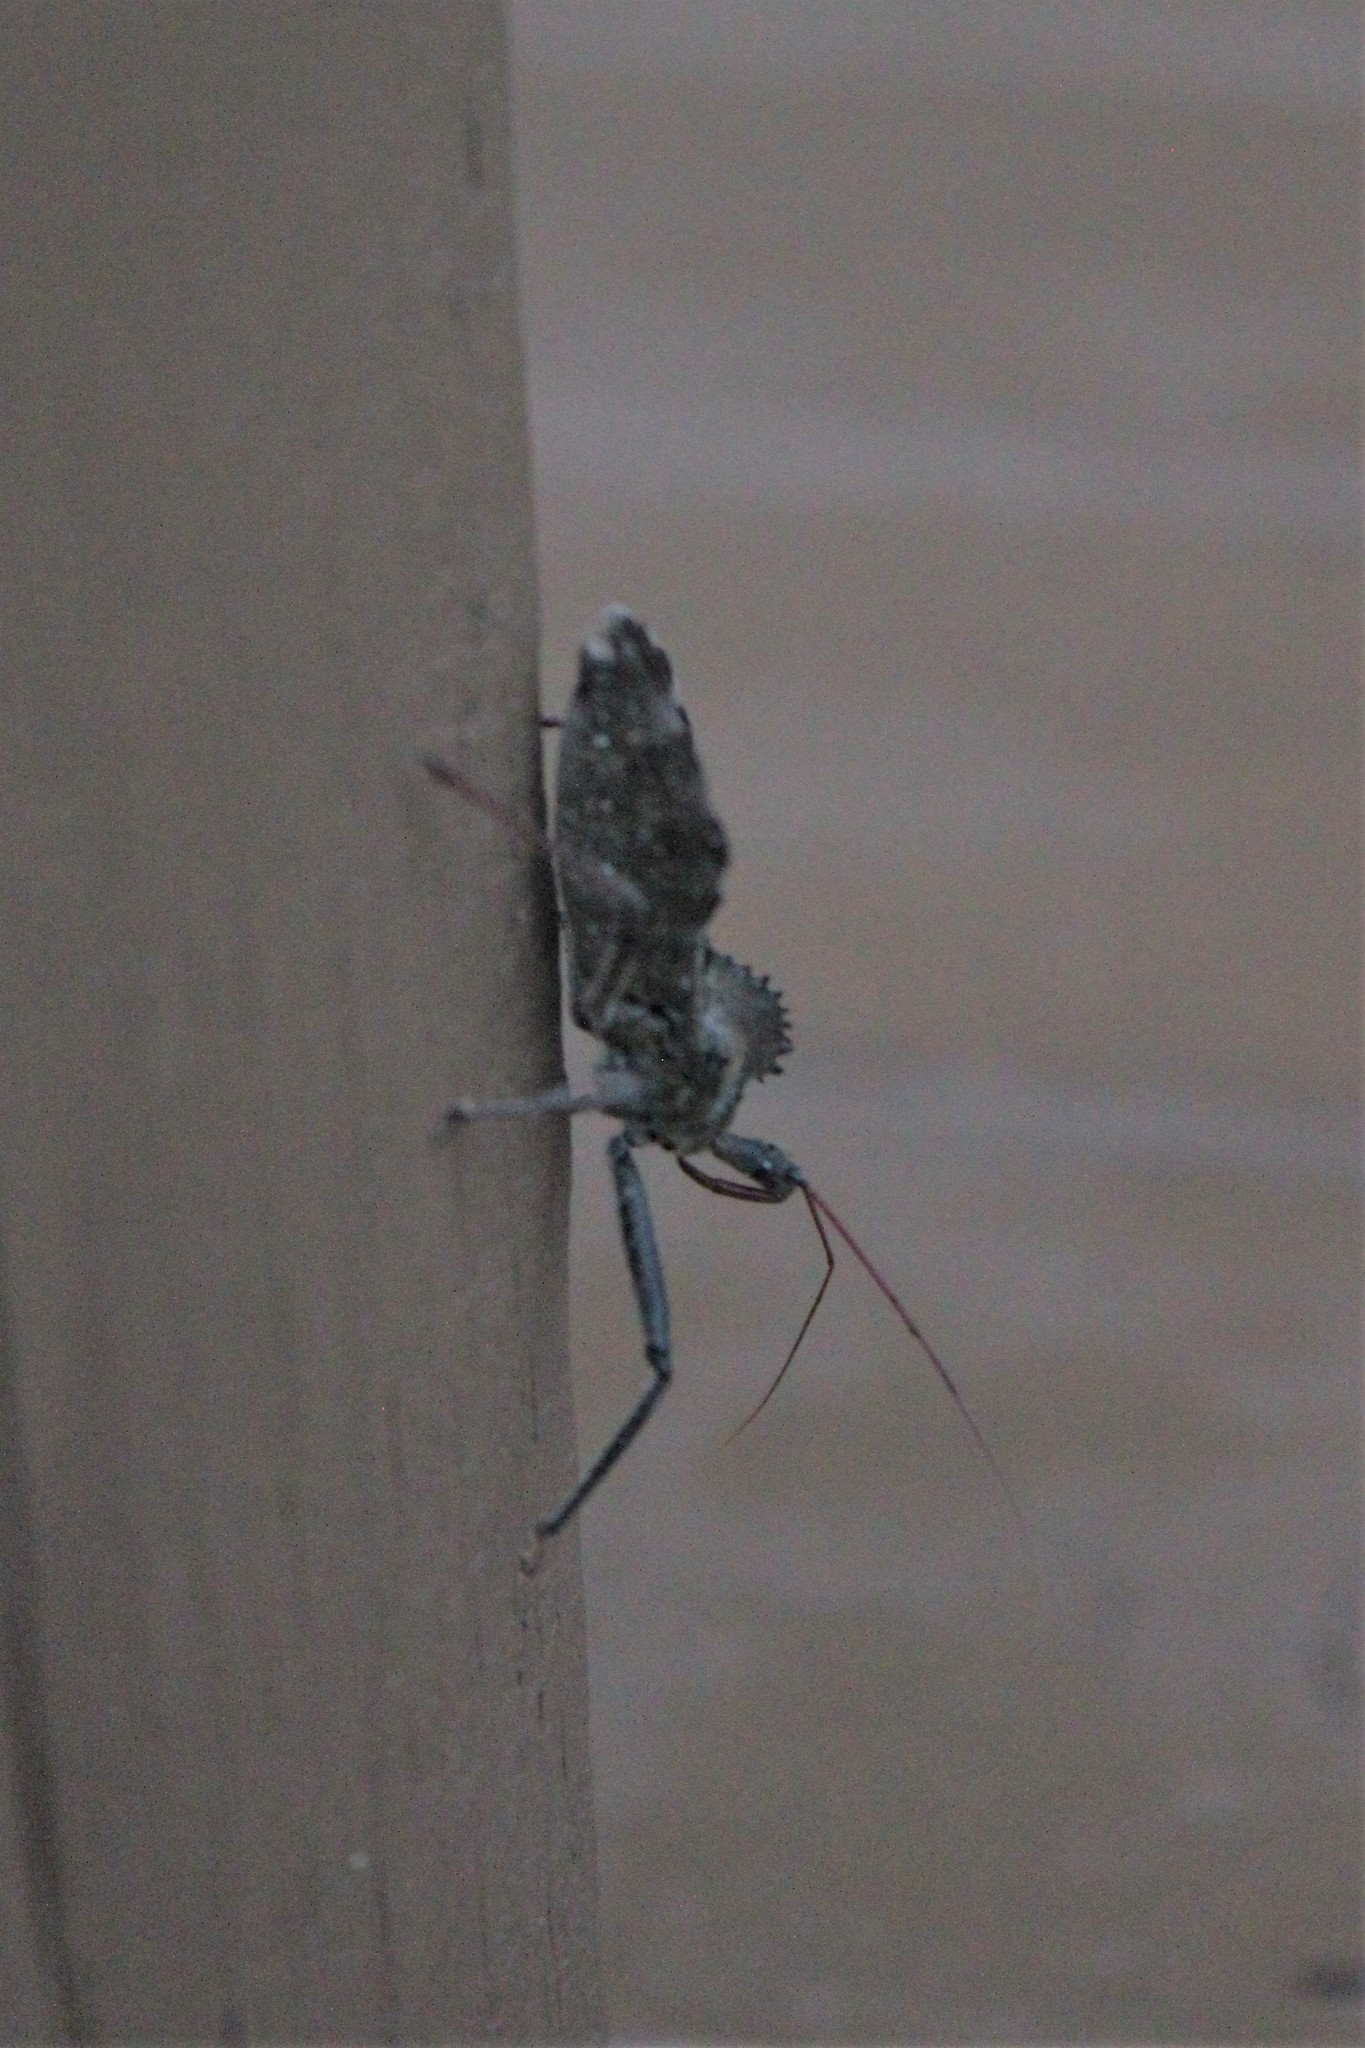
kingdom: Animalia
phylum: Arthropoda
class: Insecta
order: Hemiptera
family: Reduviidae
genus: Arilus
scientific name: Arilus cristatus
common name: North american wheel bug
